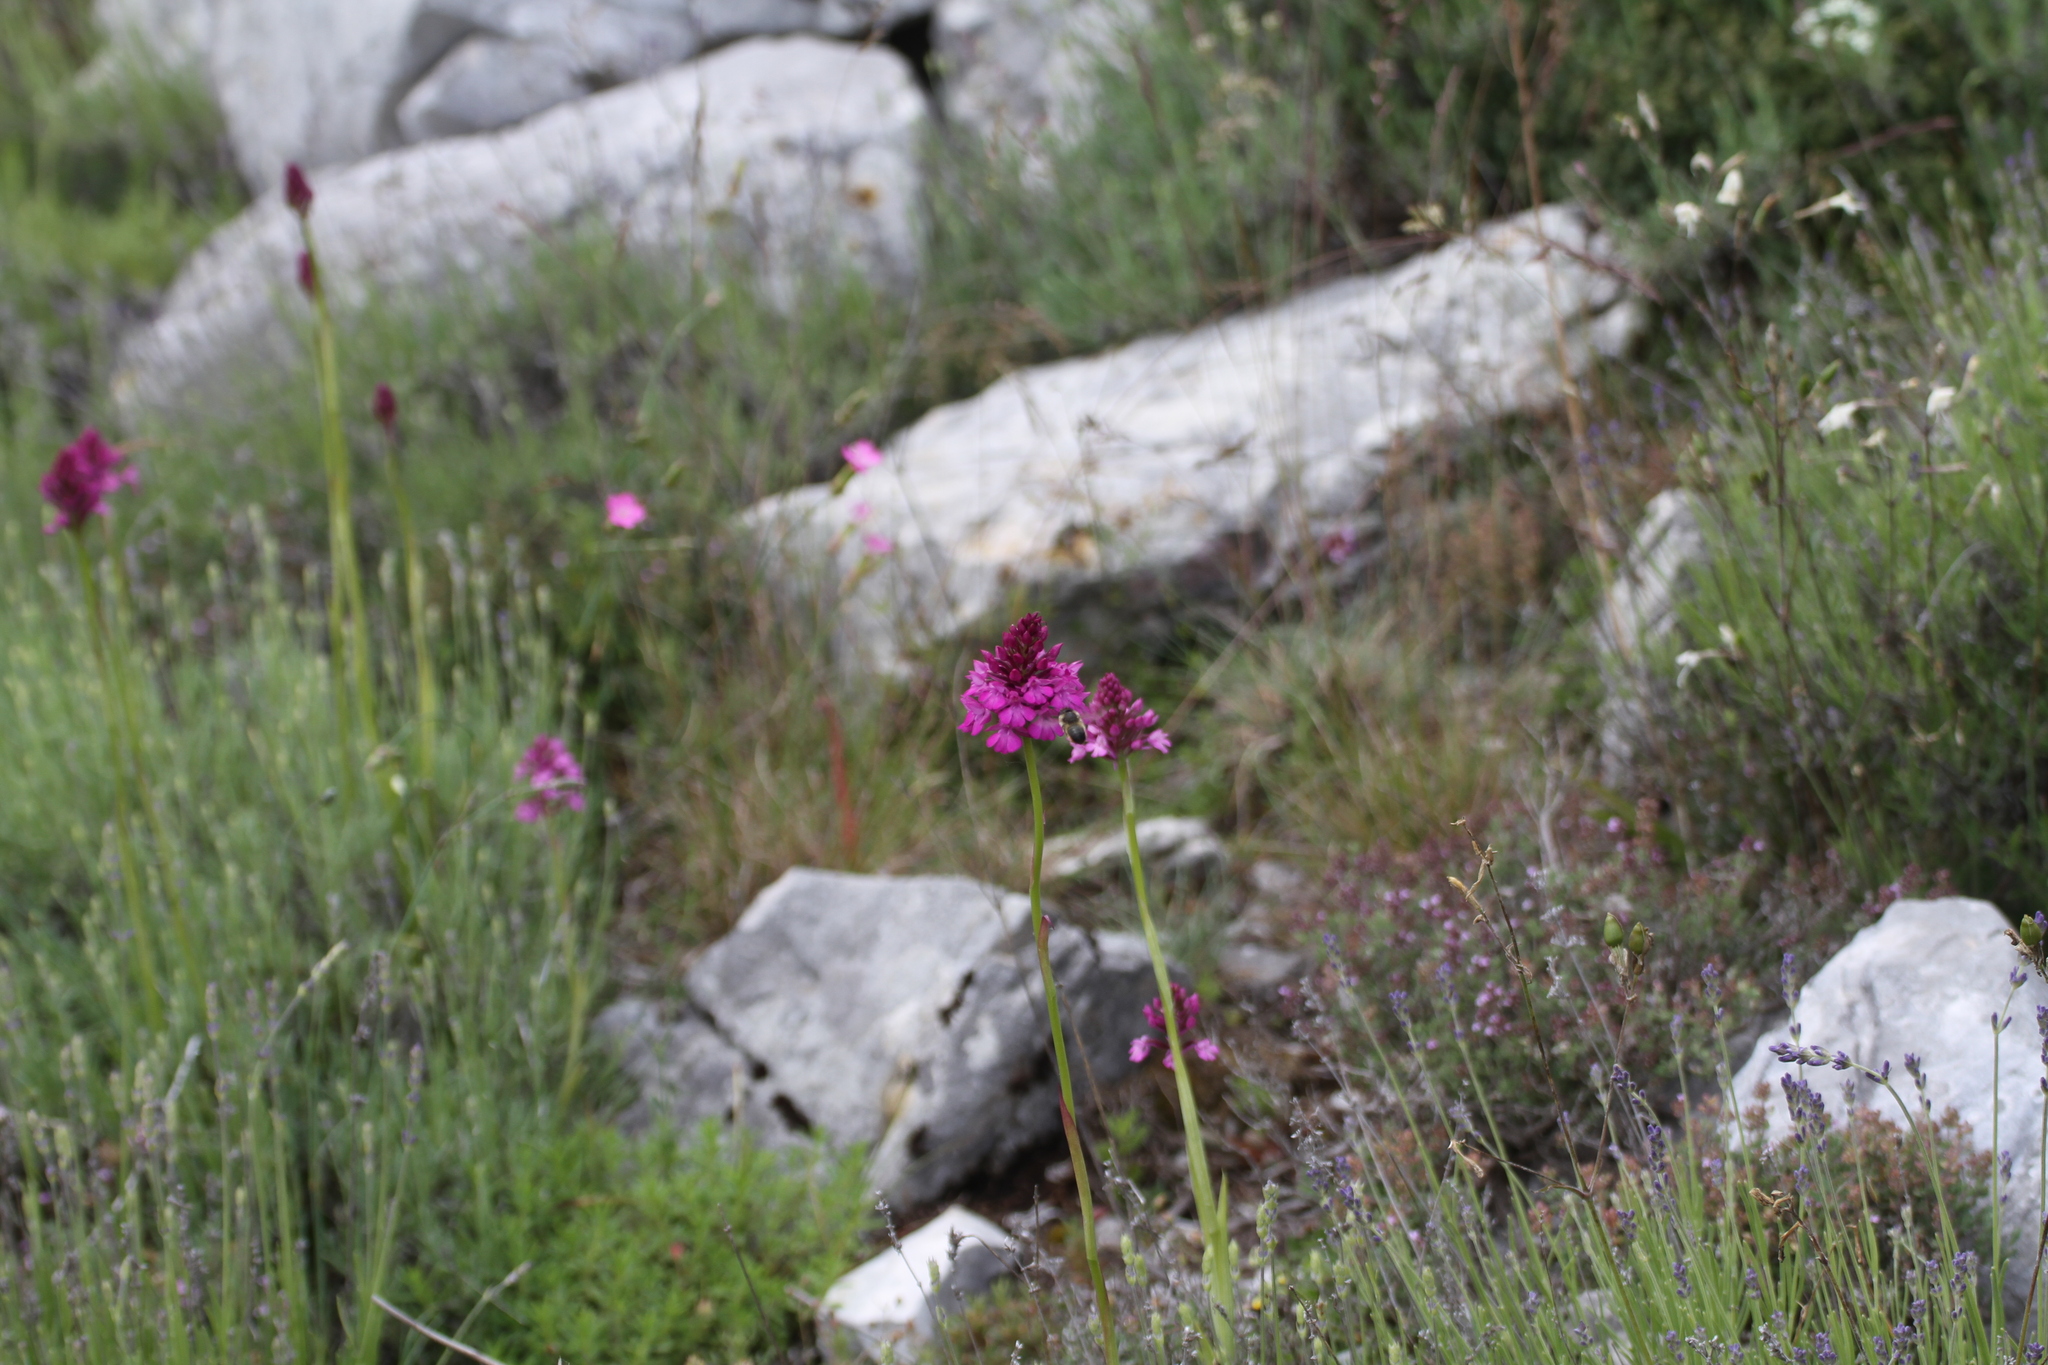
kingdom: Plantae
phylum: Tracheophyta
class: Liliopsida
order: Asparagales
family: Orchidaceae
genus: Anacamptis
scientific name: Anacamptis pyramidalis
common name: Pyramidal orchid
